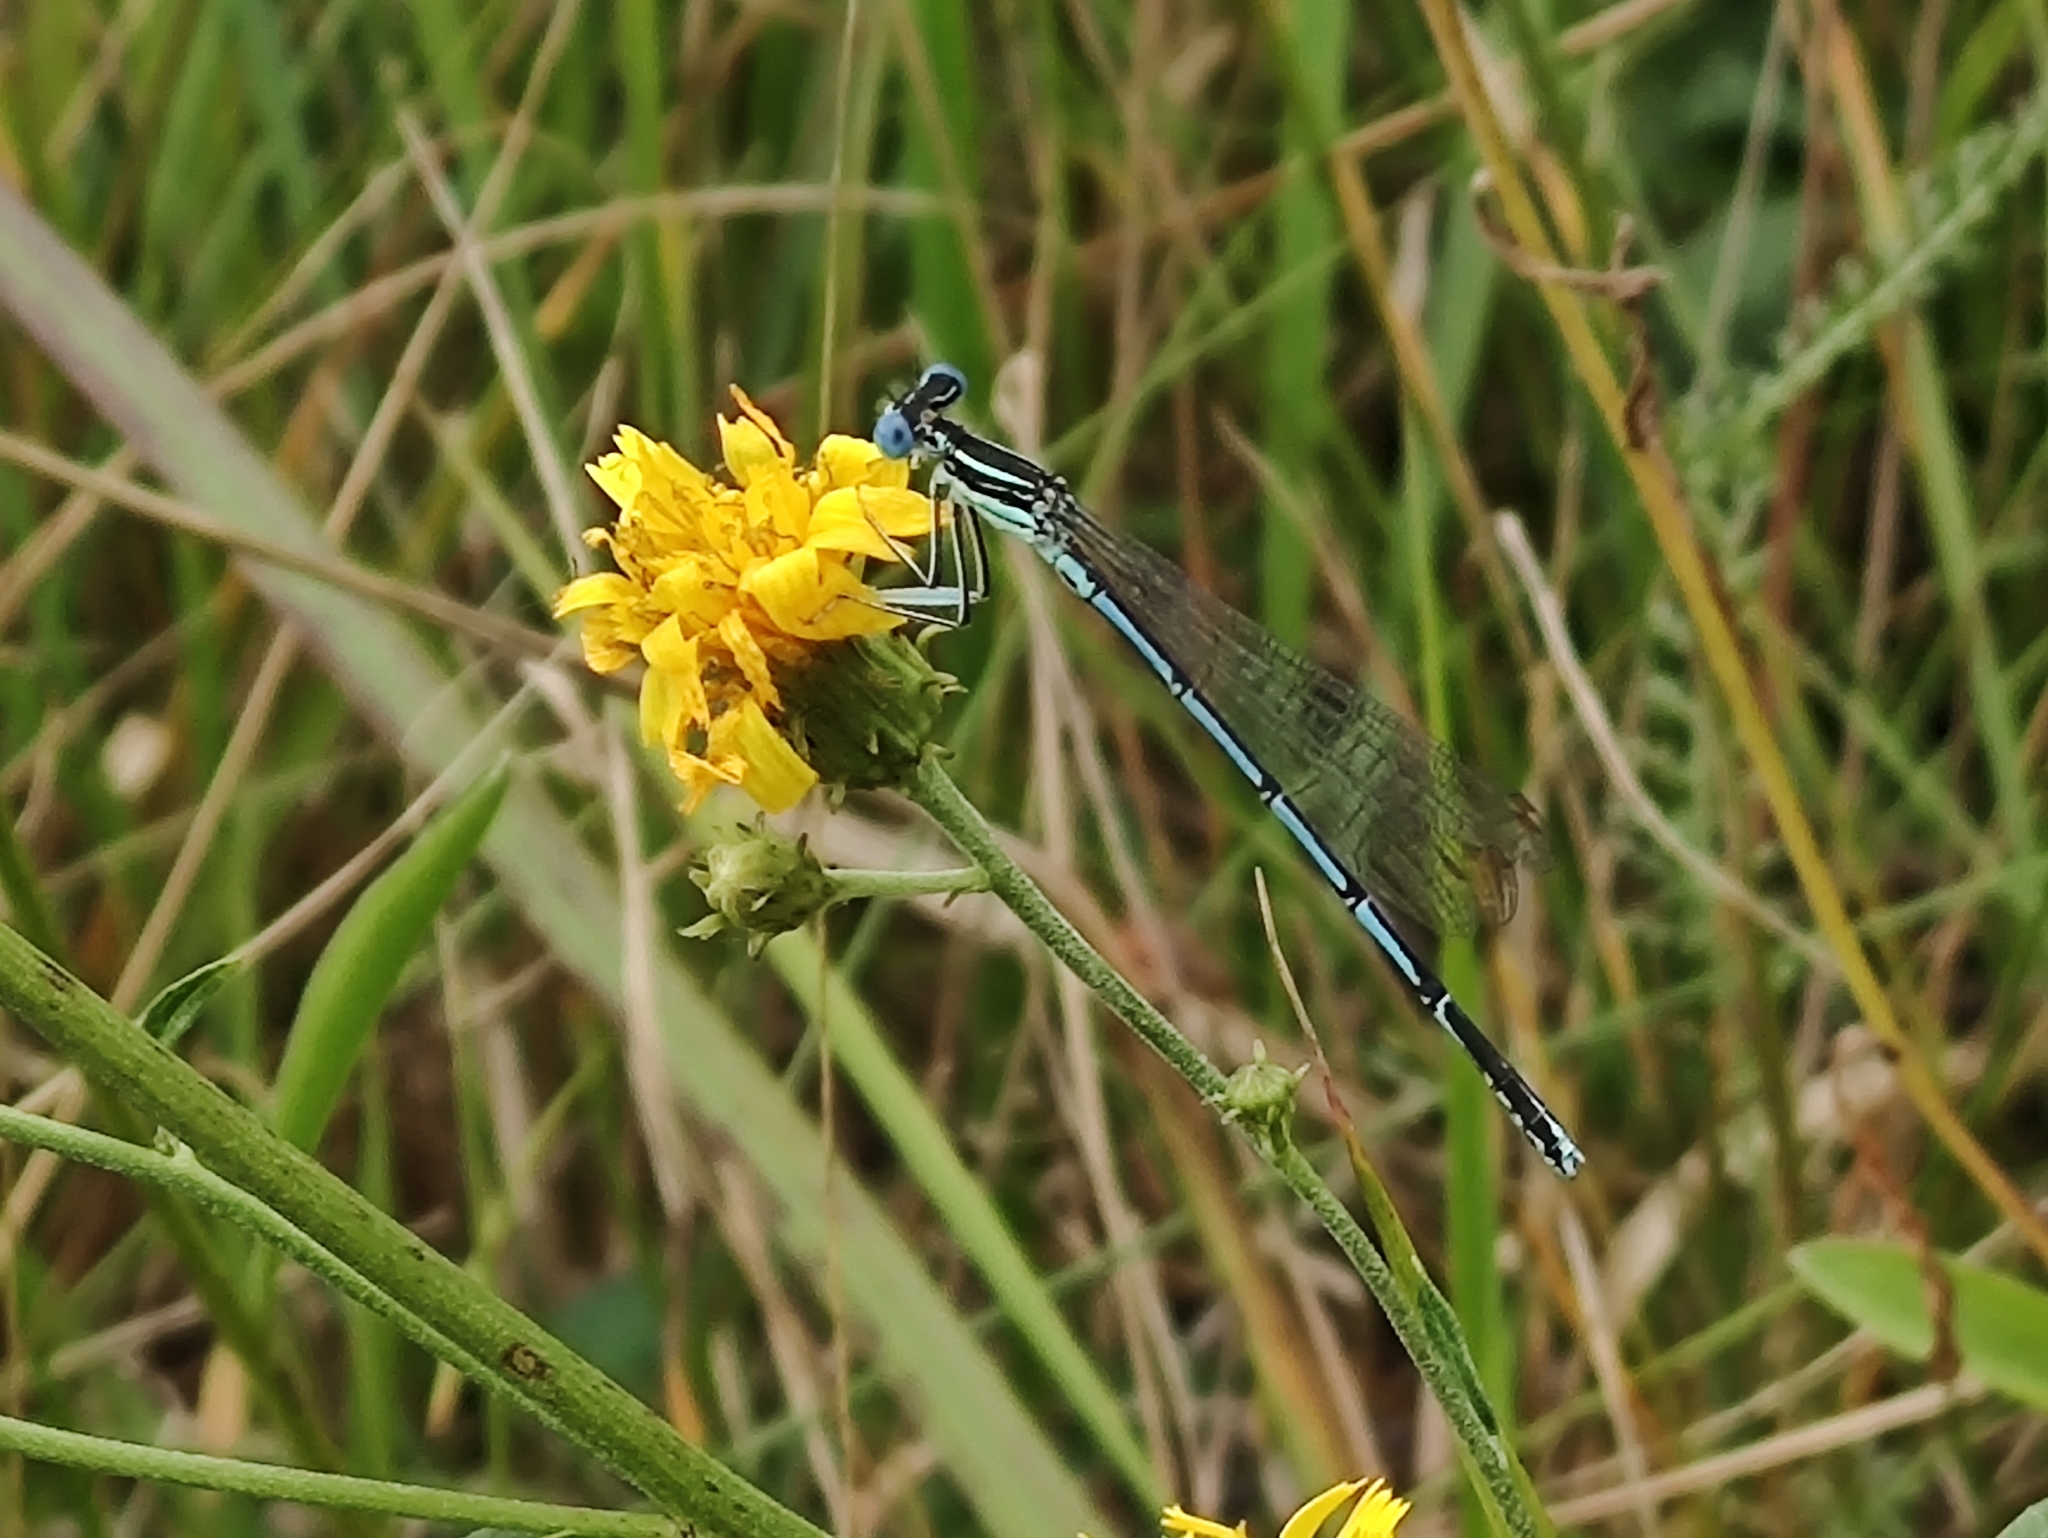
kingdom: Animalia
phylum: Arthropoda
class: Insecta
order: Odonata
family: Platycnemididae
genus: Platycnemis
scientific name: Platycnemis pennipes
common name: White-legged damselfly
